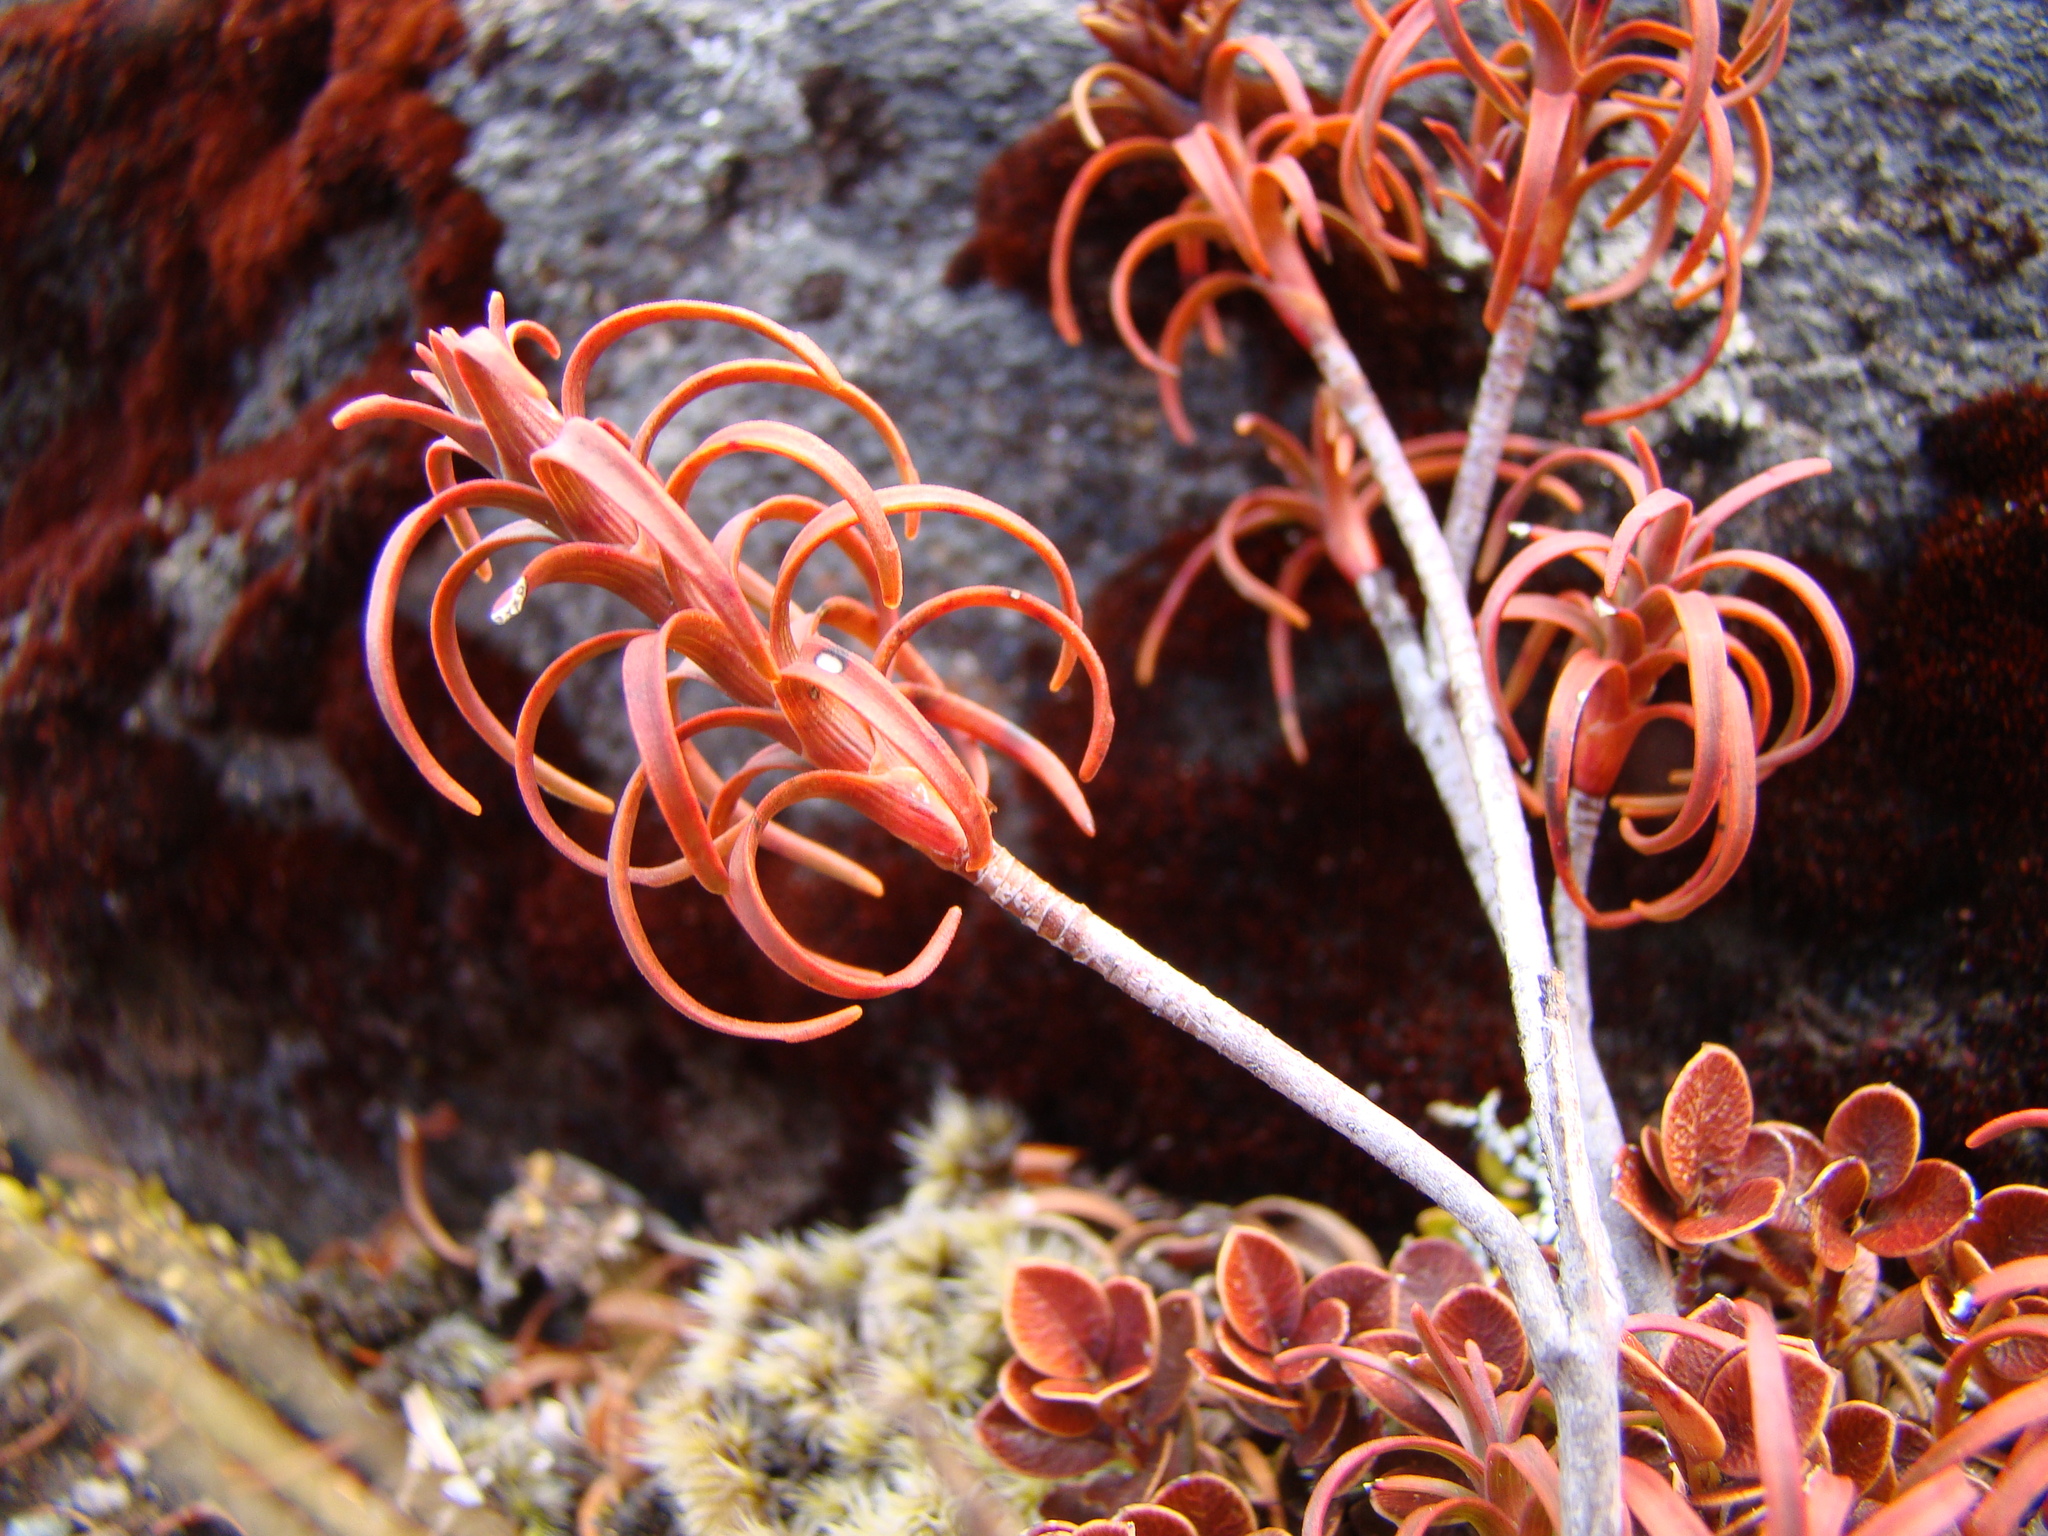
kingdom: Plantae
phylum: Tracheophyta
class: Magnoliopsida
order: Ericales
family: Ericaceae
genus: Dracophyllum
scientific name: Dracophyllum recurvum
